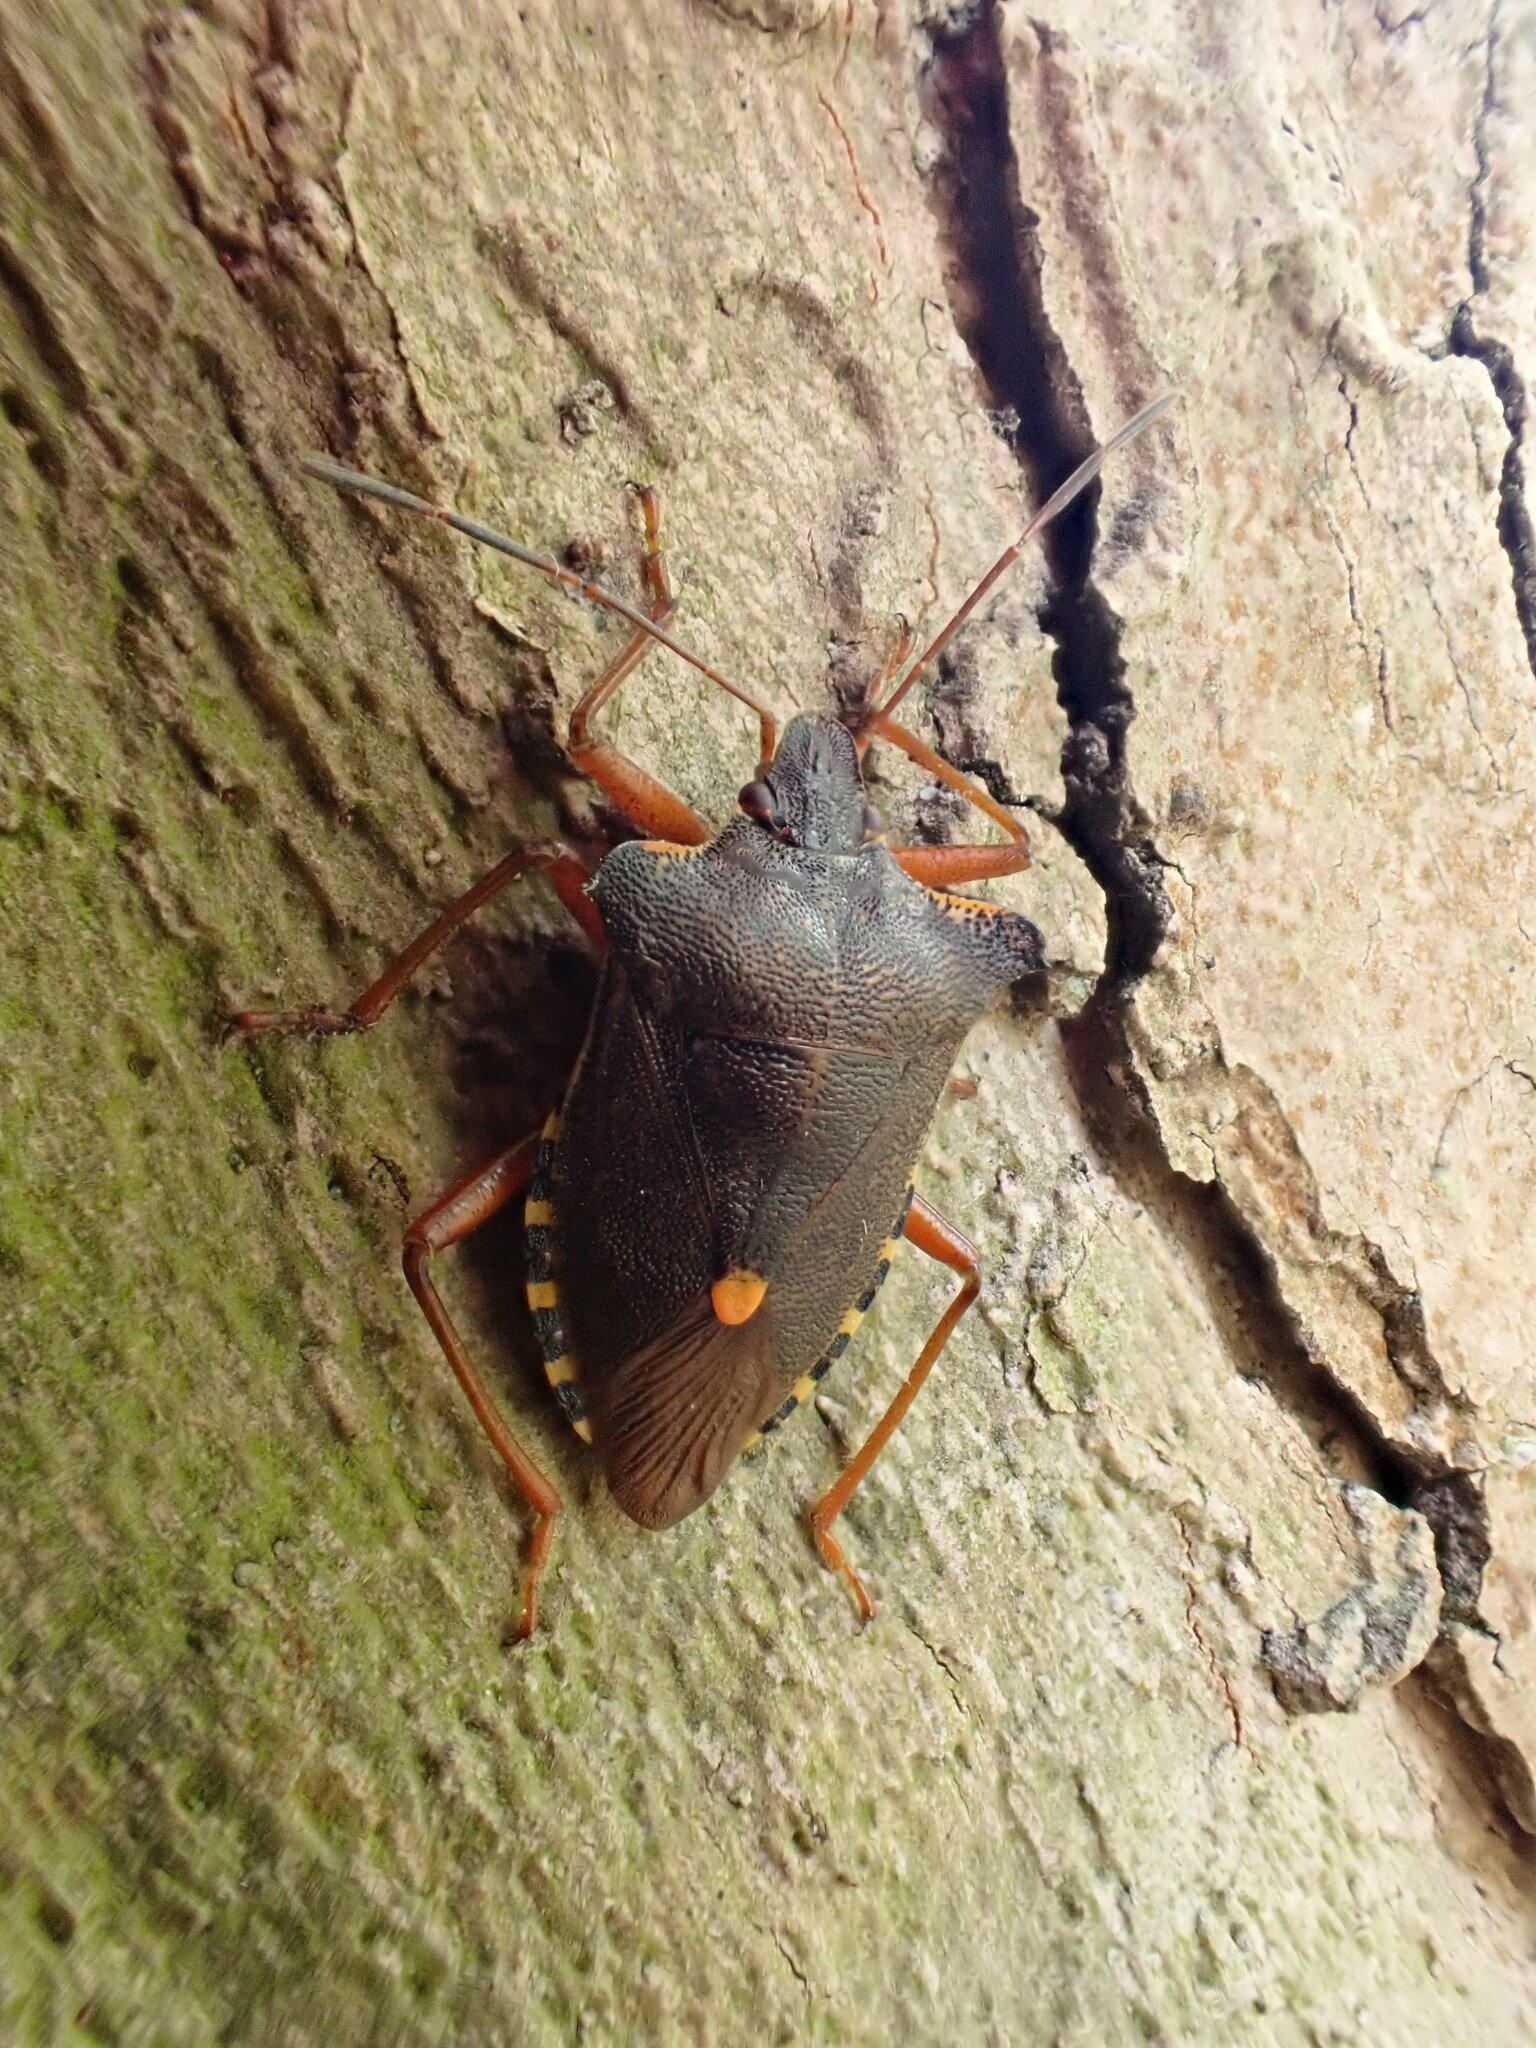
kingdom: Animalia
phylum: Arthropoda
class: Insecta
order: Hemiptera
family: Pentatomidae
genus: Pentatoma
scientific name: Pentatoma rufipes
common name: Forest bug
